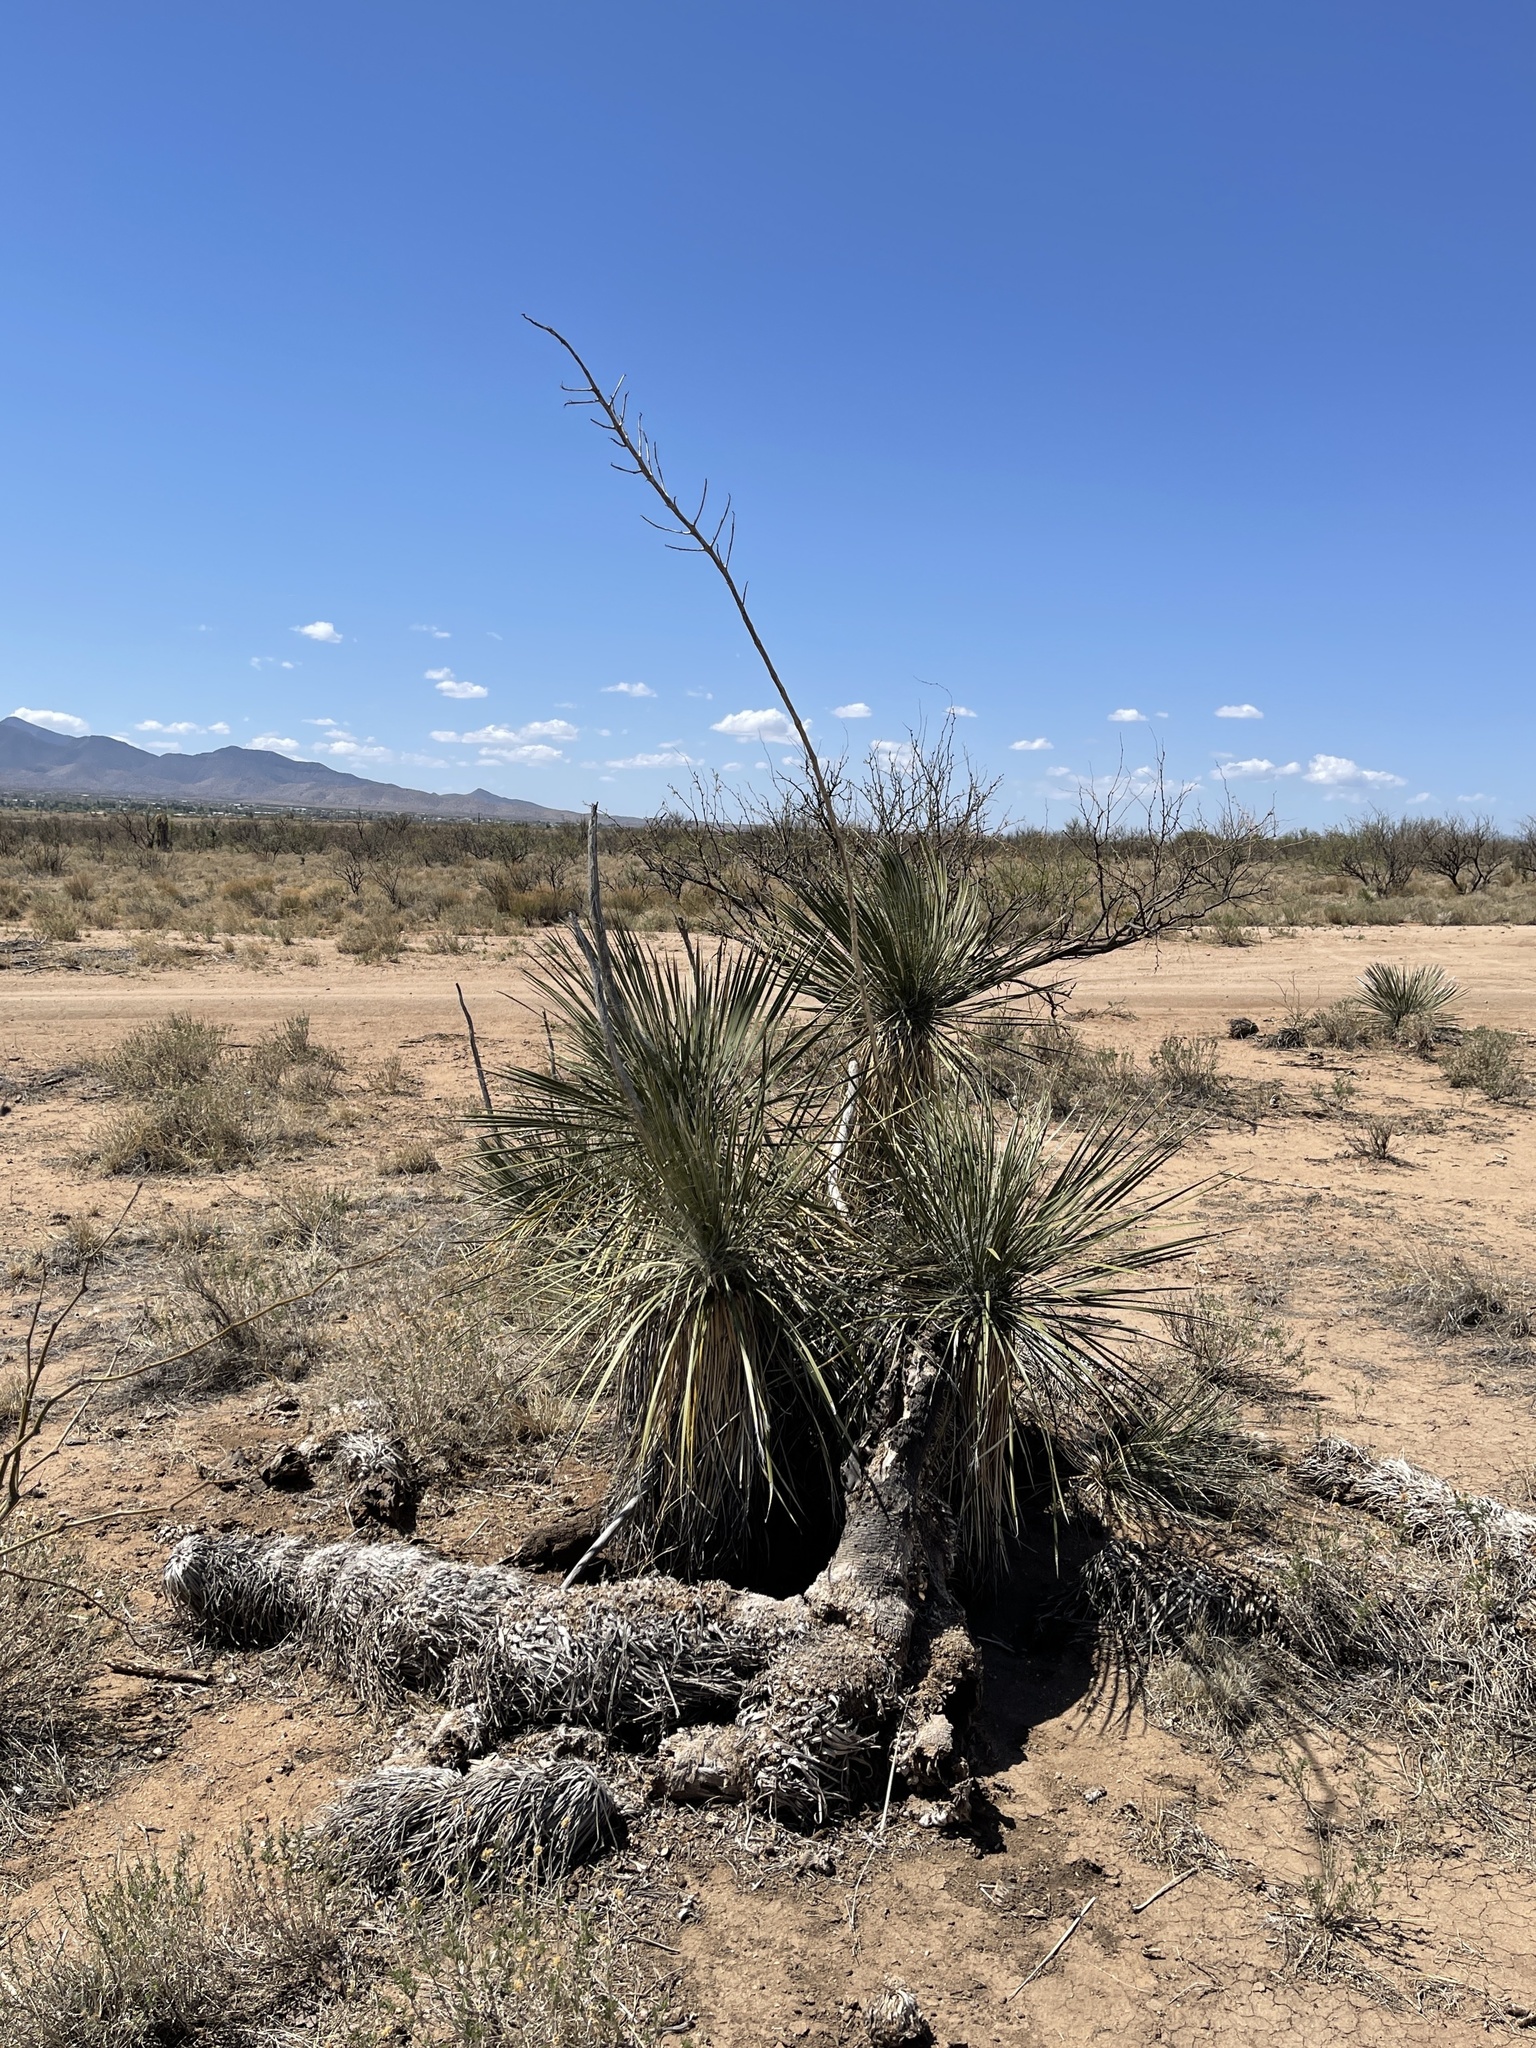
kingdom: Plantae
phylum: Tracheophyta
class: Liliopsida
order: Asparagales
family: Asparagaceae
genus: Yucca
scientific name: Yucca elata
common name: Palmella
